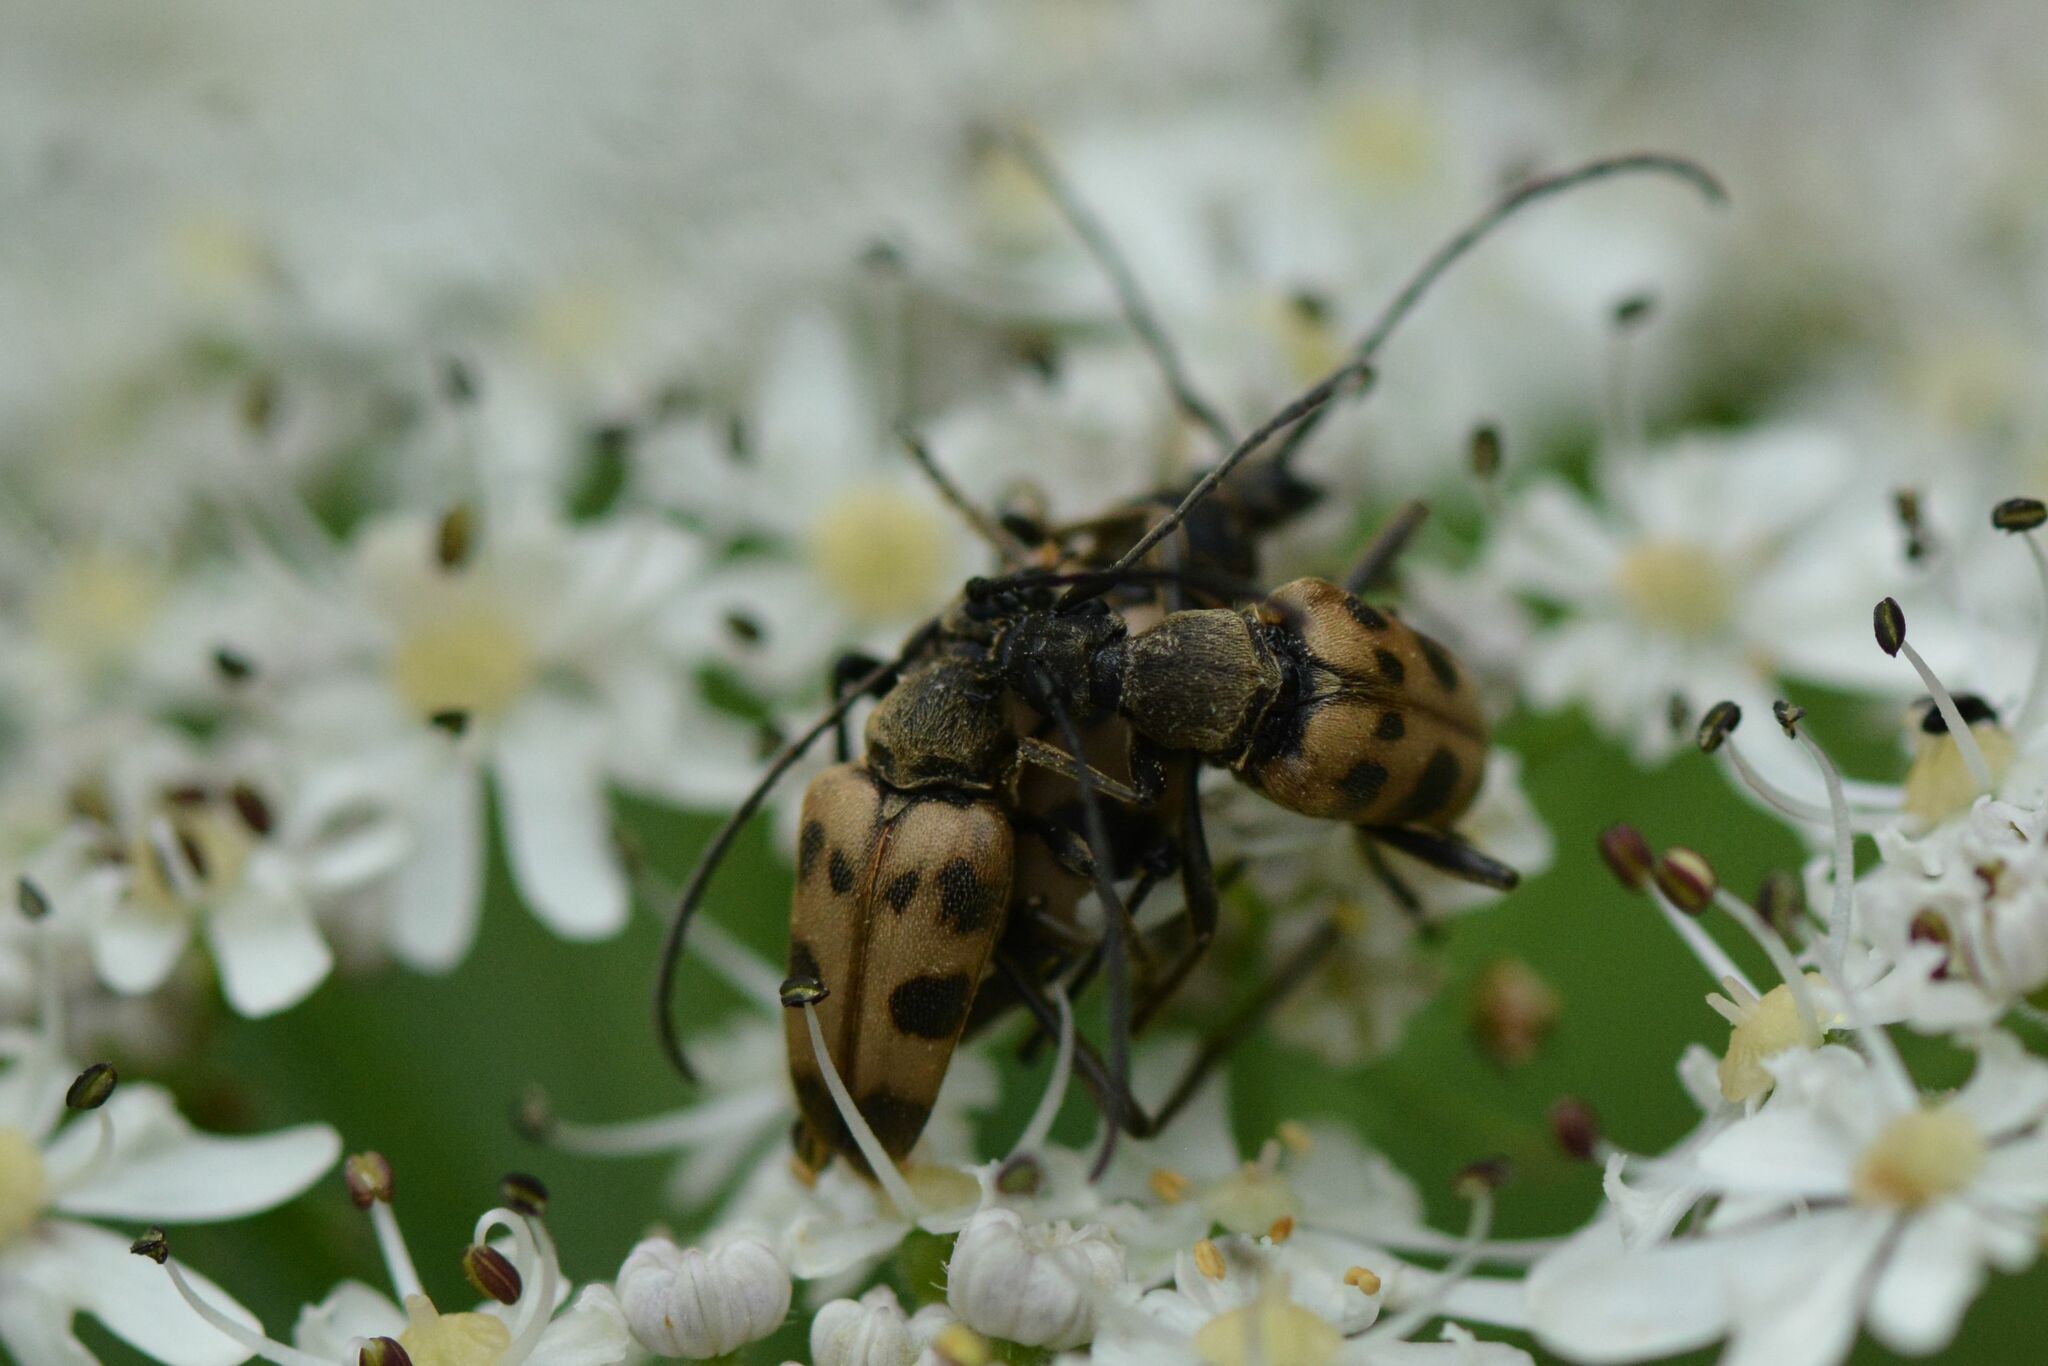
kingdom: Animalia
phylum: Arthropoda
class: Insecta
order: Coleoptera
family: Cerambycidae
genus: Pachytodes
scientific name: Pachytodes cerambyciformis
